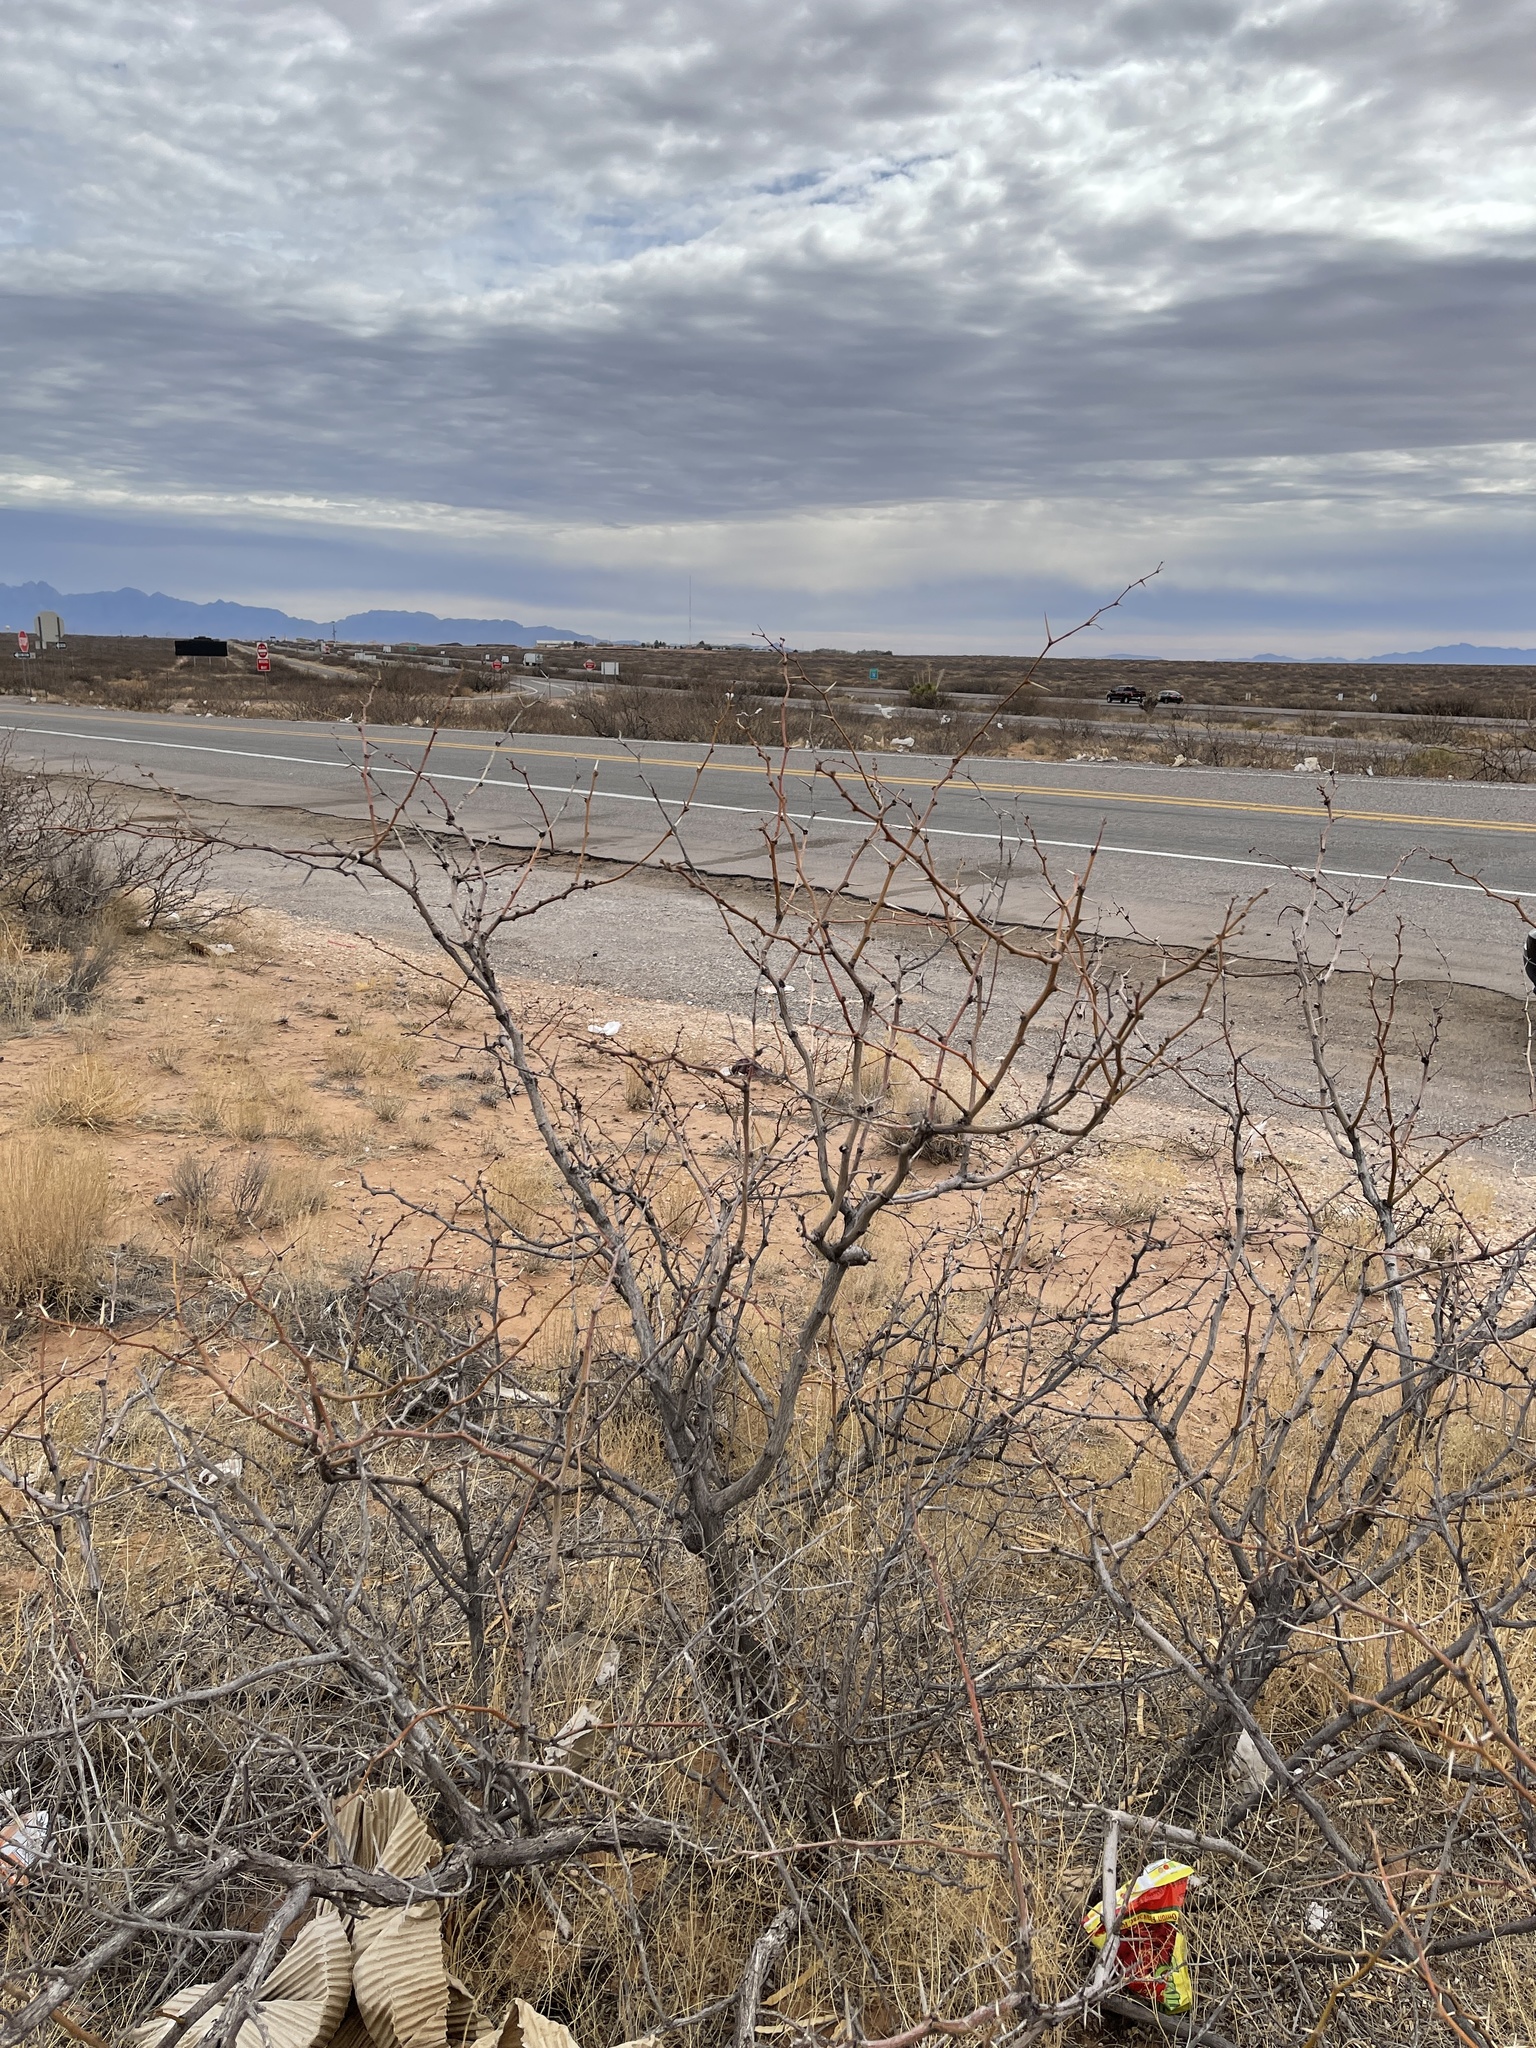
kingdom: Plantae
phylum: Tracheophyta
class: Magnoliopsida
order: Fabales
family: Fabaceae
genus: Prosopis
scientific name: Prosopis glandulosa
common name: Honey mesquite
